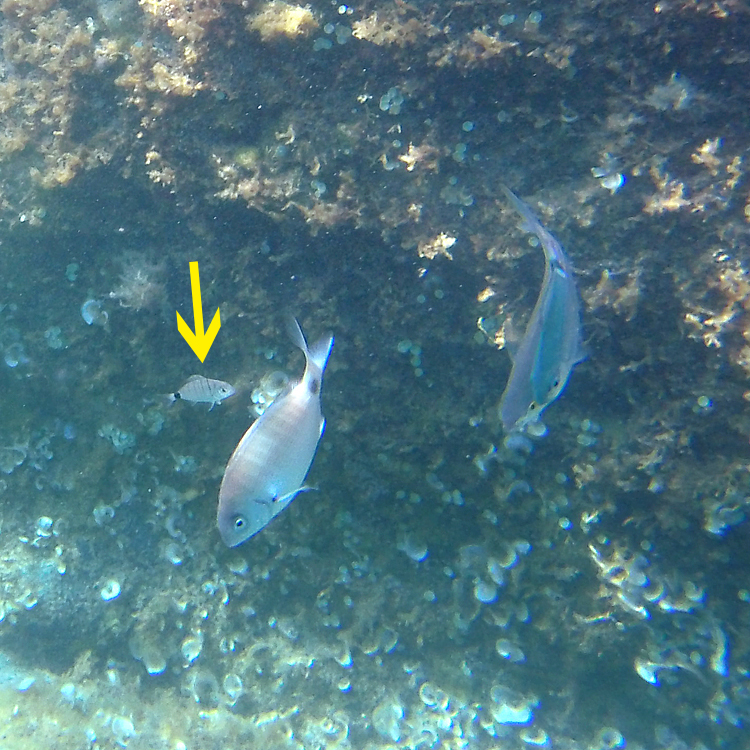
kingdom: Animalia
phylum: Chordata
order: Perciformes
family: Sparidae
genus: Diplodus
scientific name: Diplodus sargus
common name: White seabream
